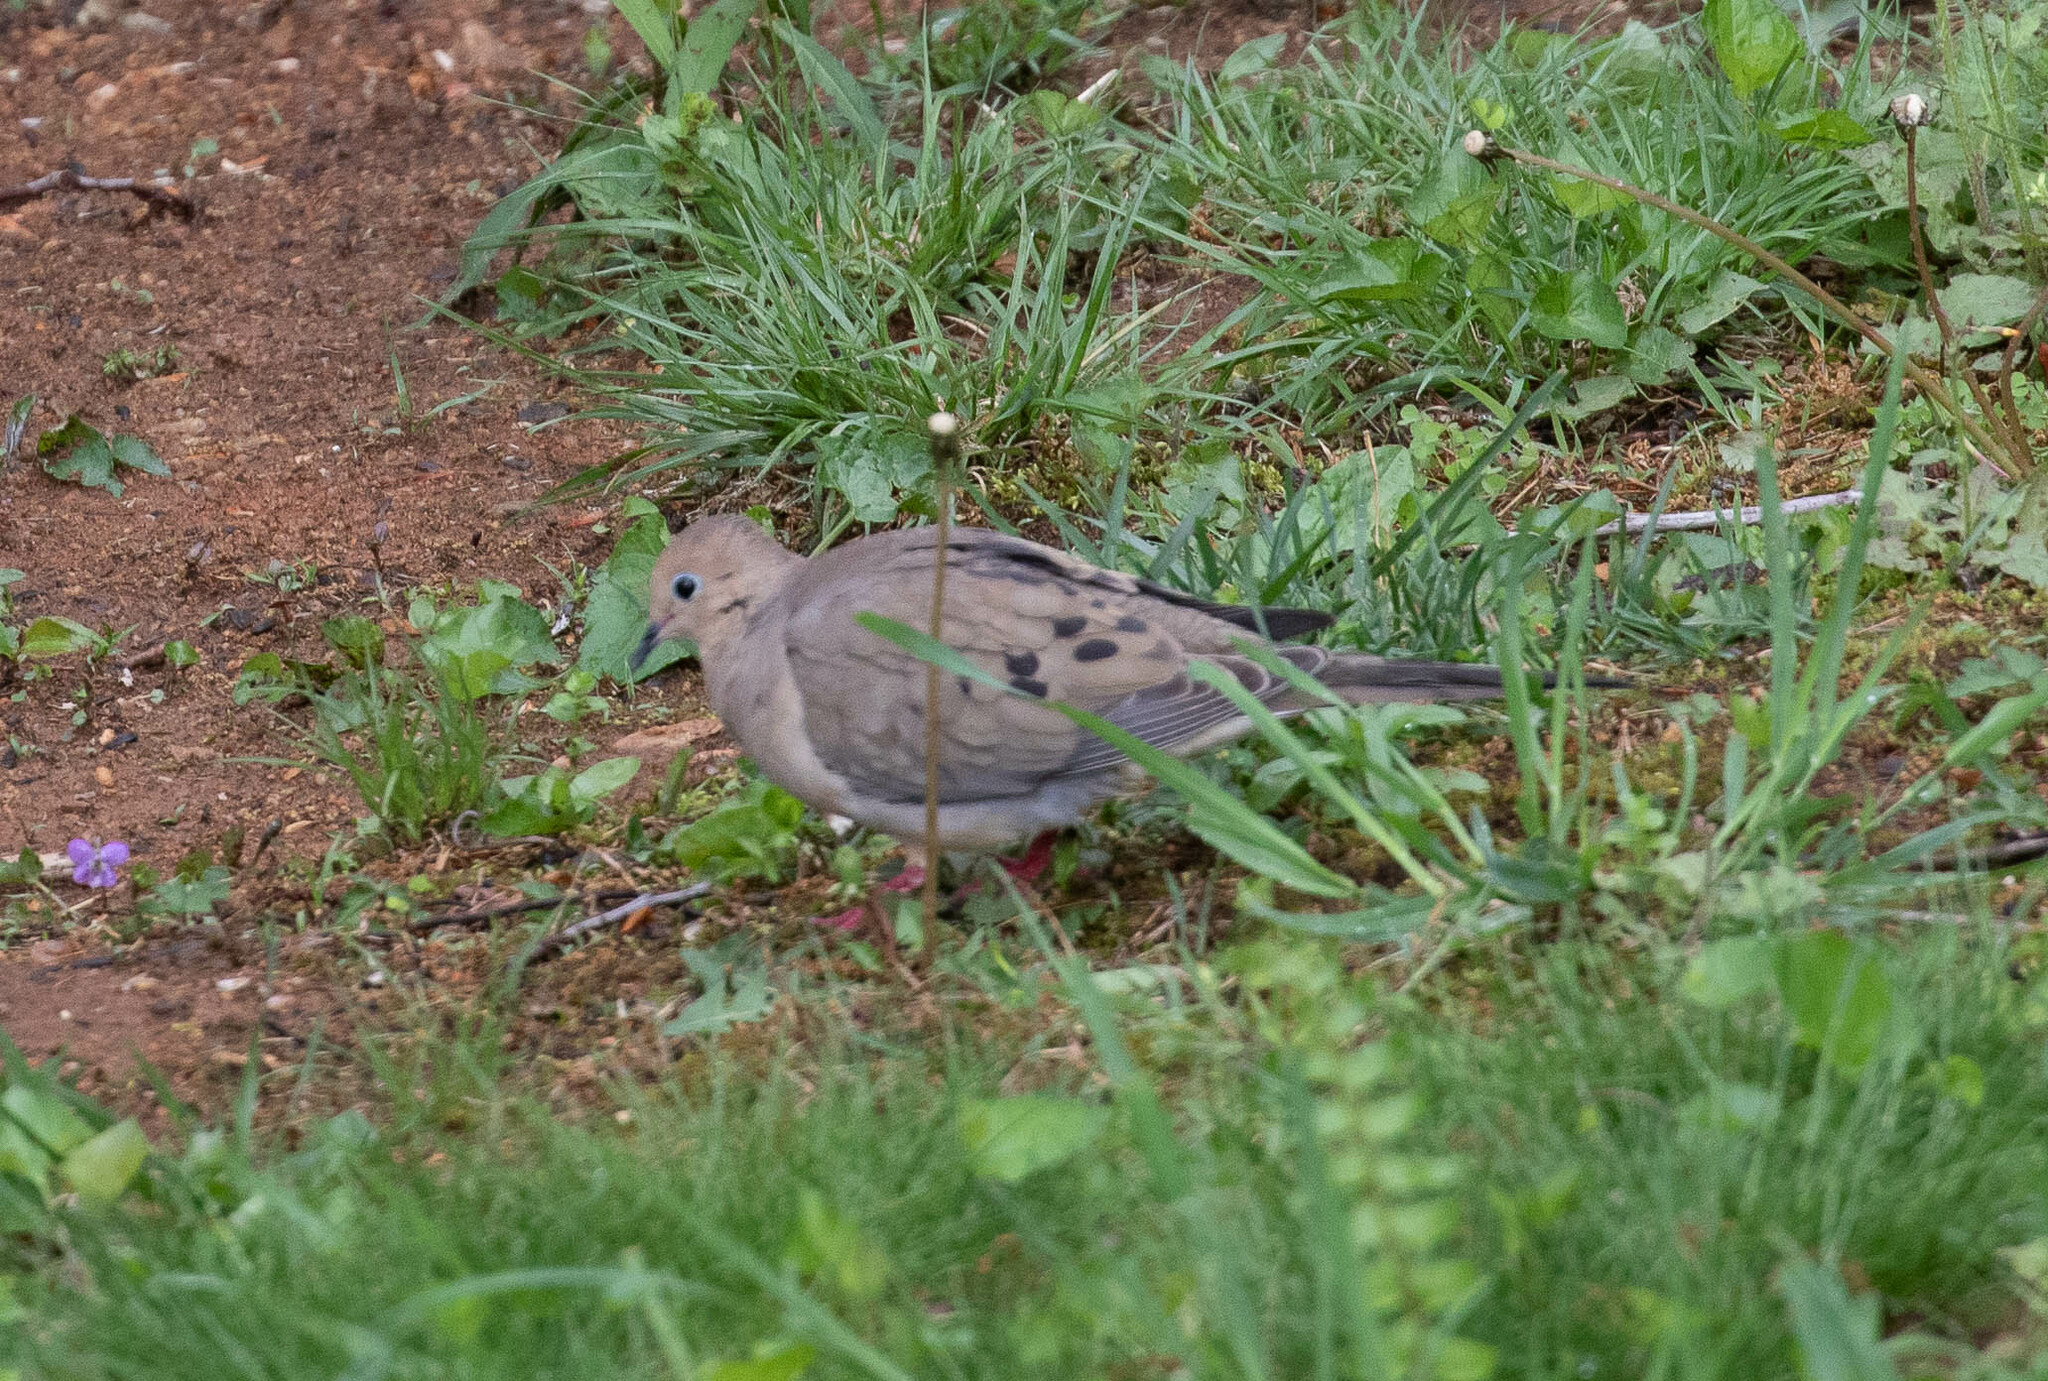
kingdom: Animalia
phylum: Chordata
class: Aves
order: Columbiformes
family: Columbidae
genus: Zenaida
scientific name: Zenaida macroura
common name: Mourning dove
